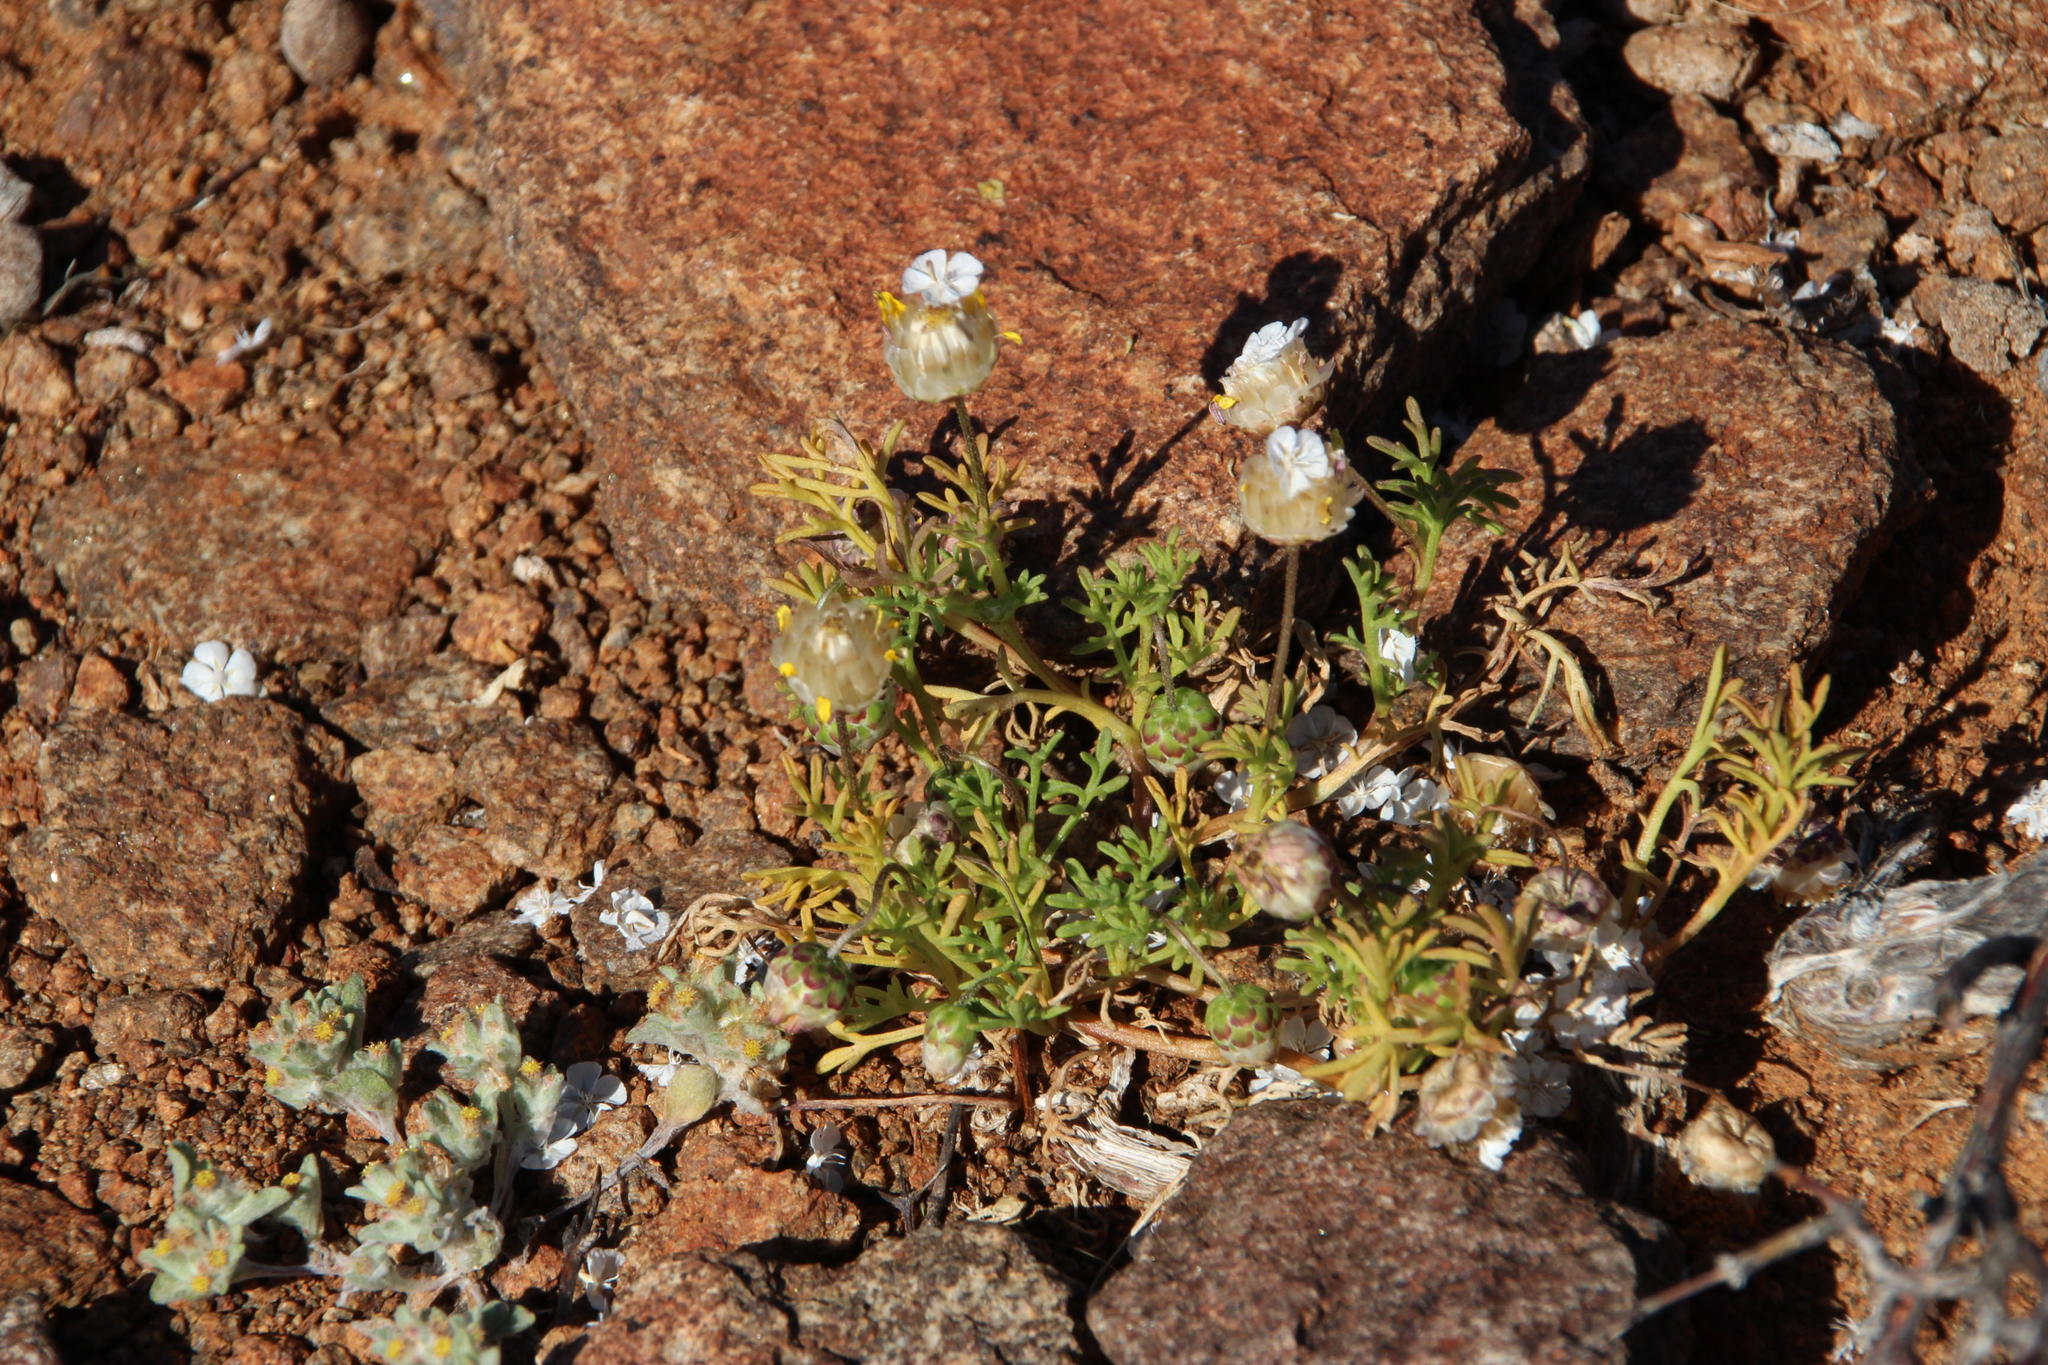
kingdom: Plantae
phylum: Tracheophyta
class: Magnoliopsida
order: Asterales
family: Asteraceae
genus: Ursinia
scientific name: Ursinia nana
